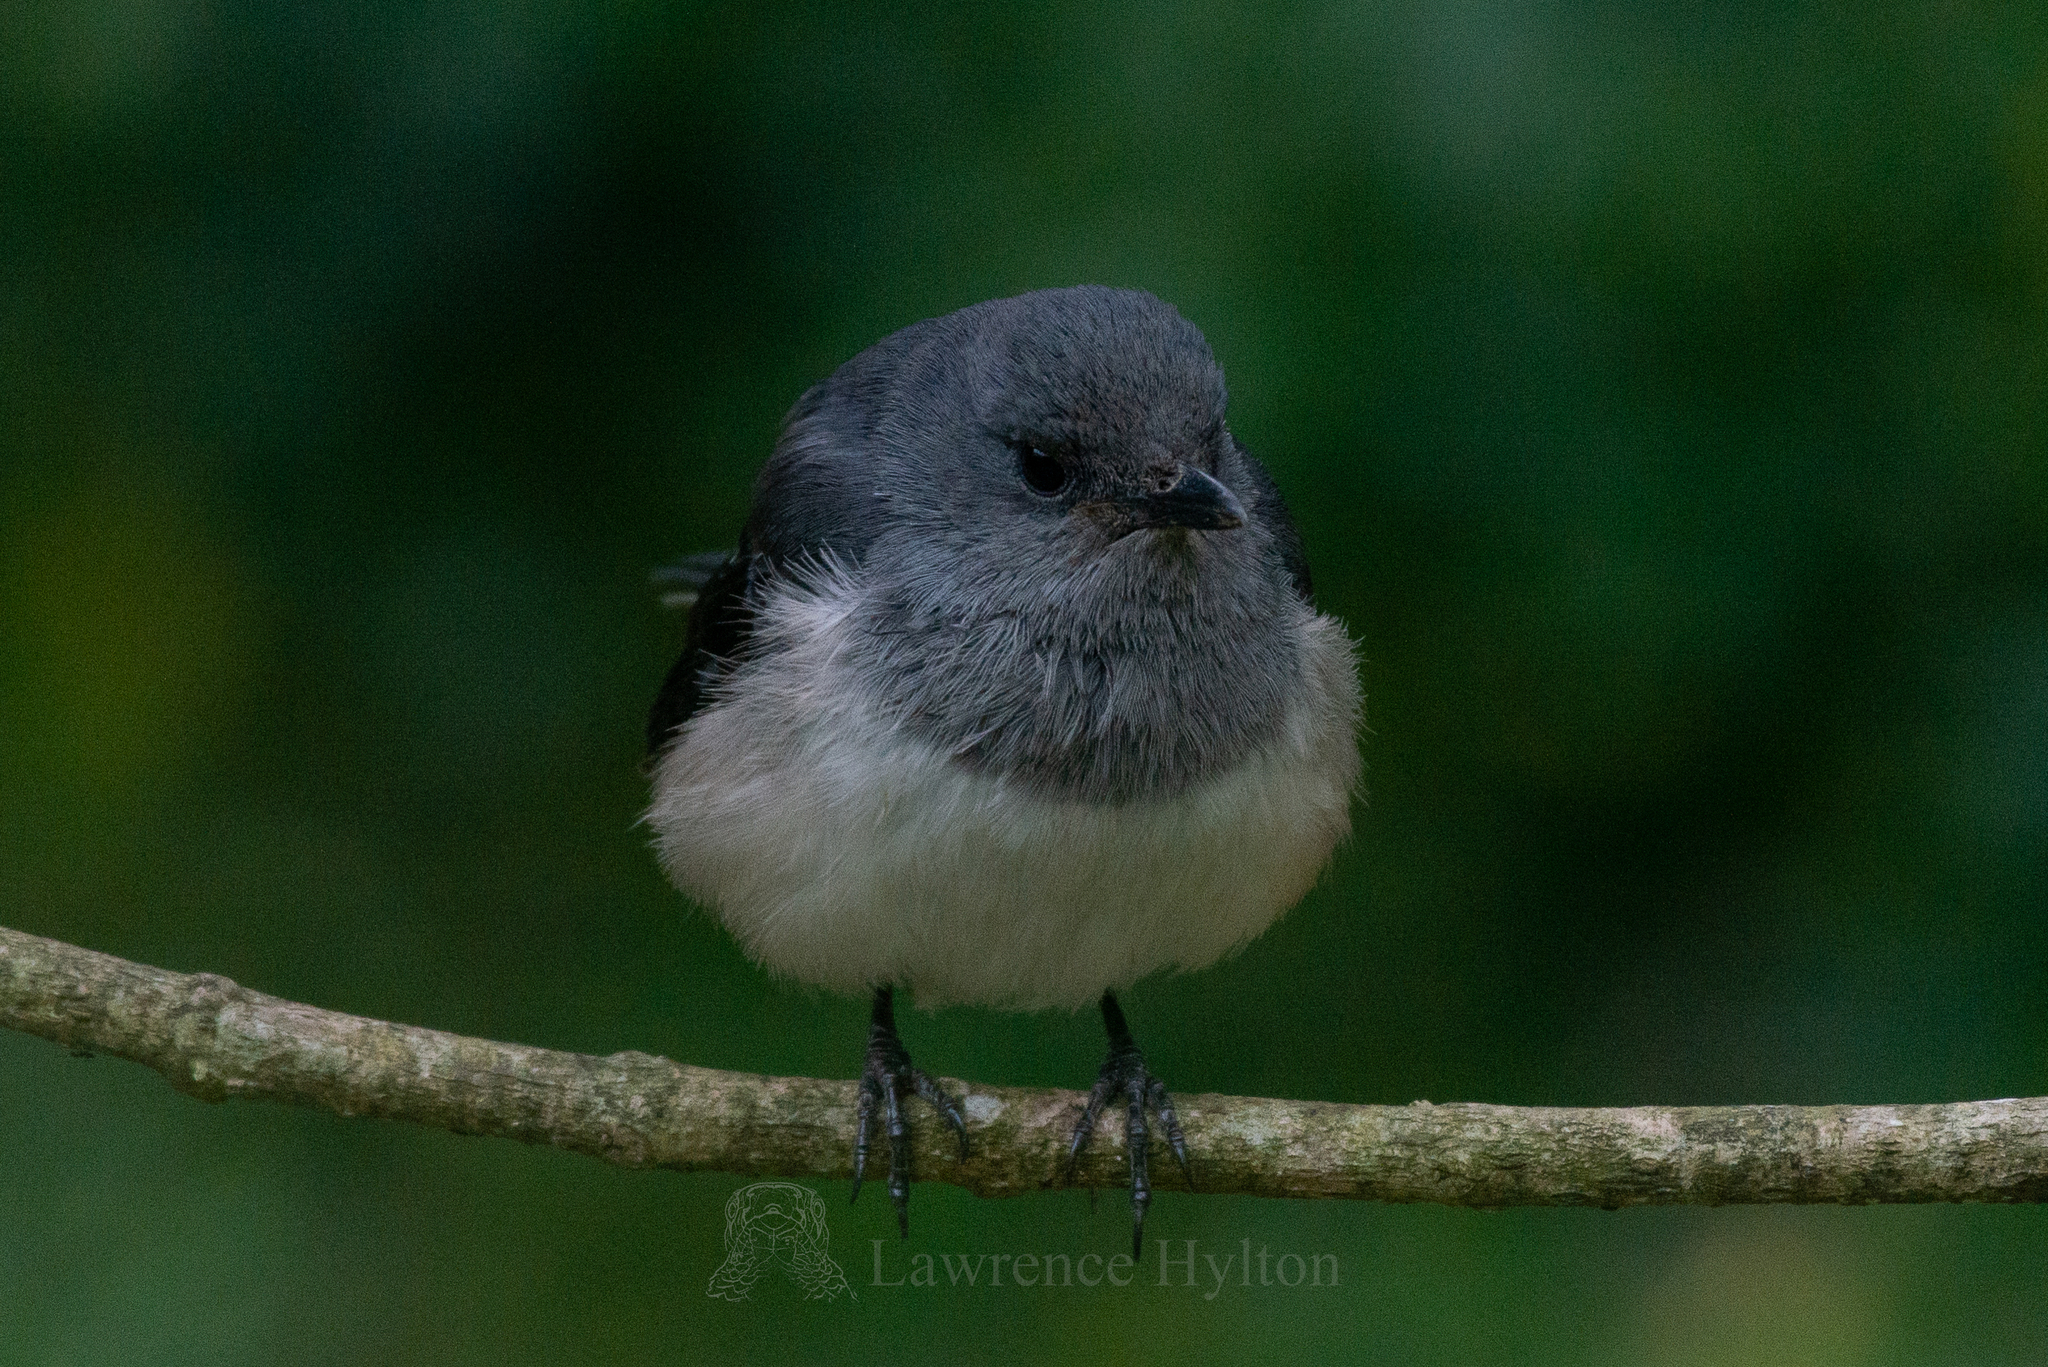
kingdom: Animalia
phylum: Chordata
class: Aves
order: Passeriformes
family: Muscicapidae
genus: Copsychus
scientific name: Copsychus saularis
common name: Oriental magpie-robin
